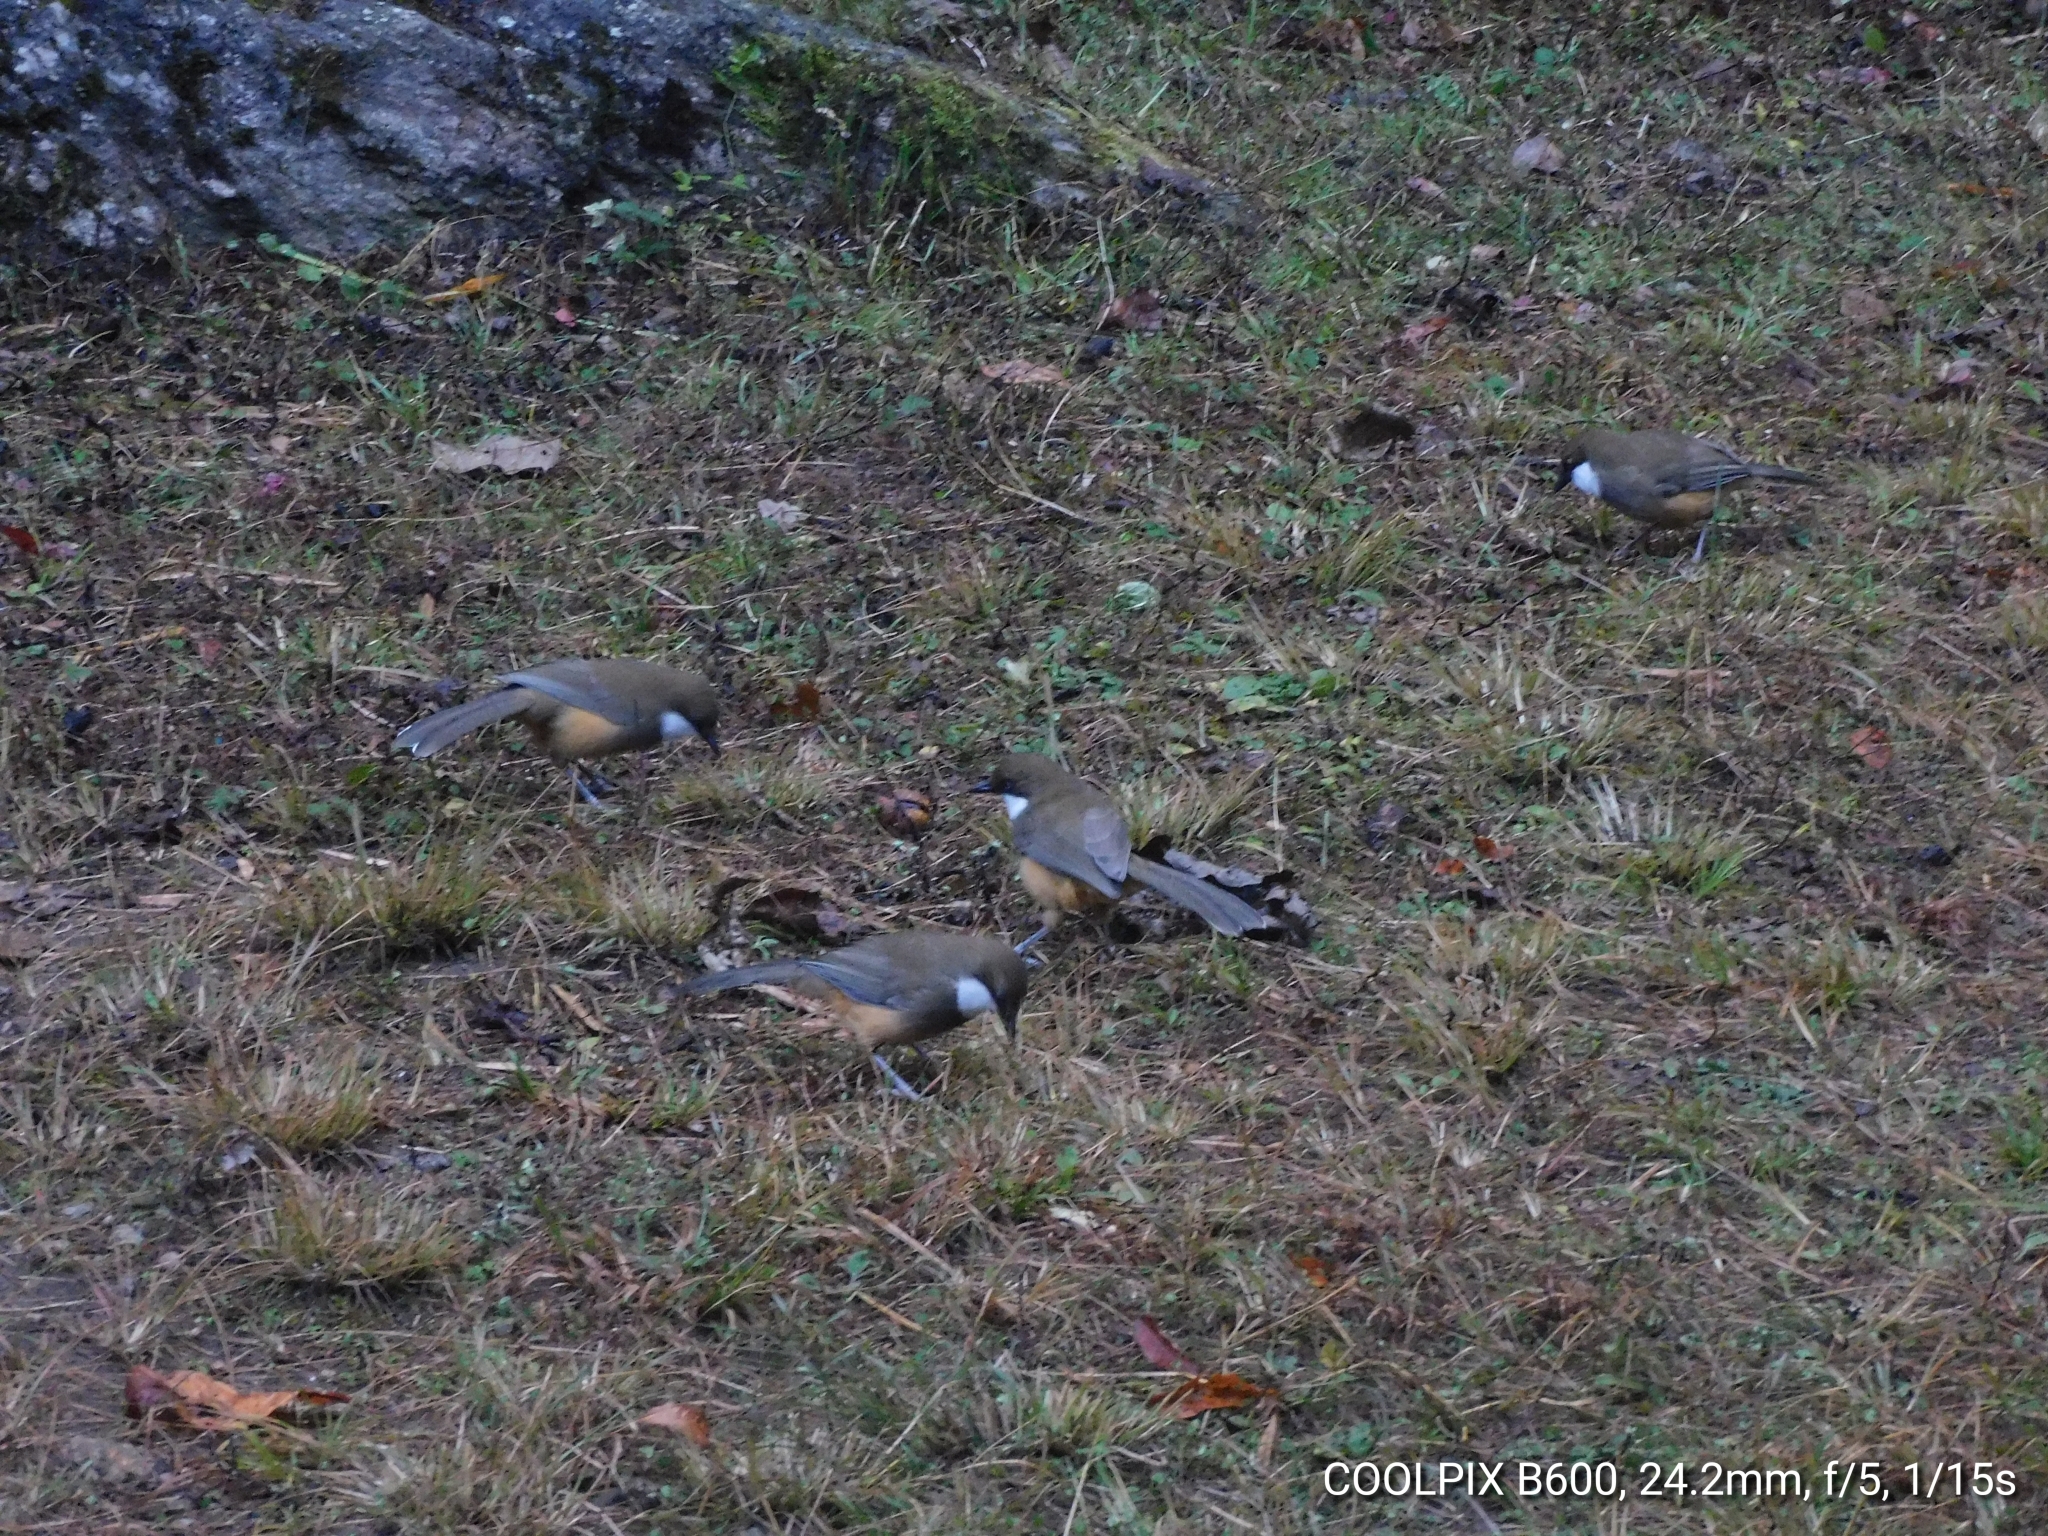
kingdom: Animalia
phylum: Chordata
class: Aves
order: Passeriformes
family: Leiothrichidae
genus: Garrulax
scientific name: Garrulax albogularis
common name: White-throated laughingthrush
